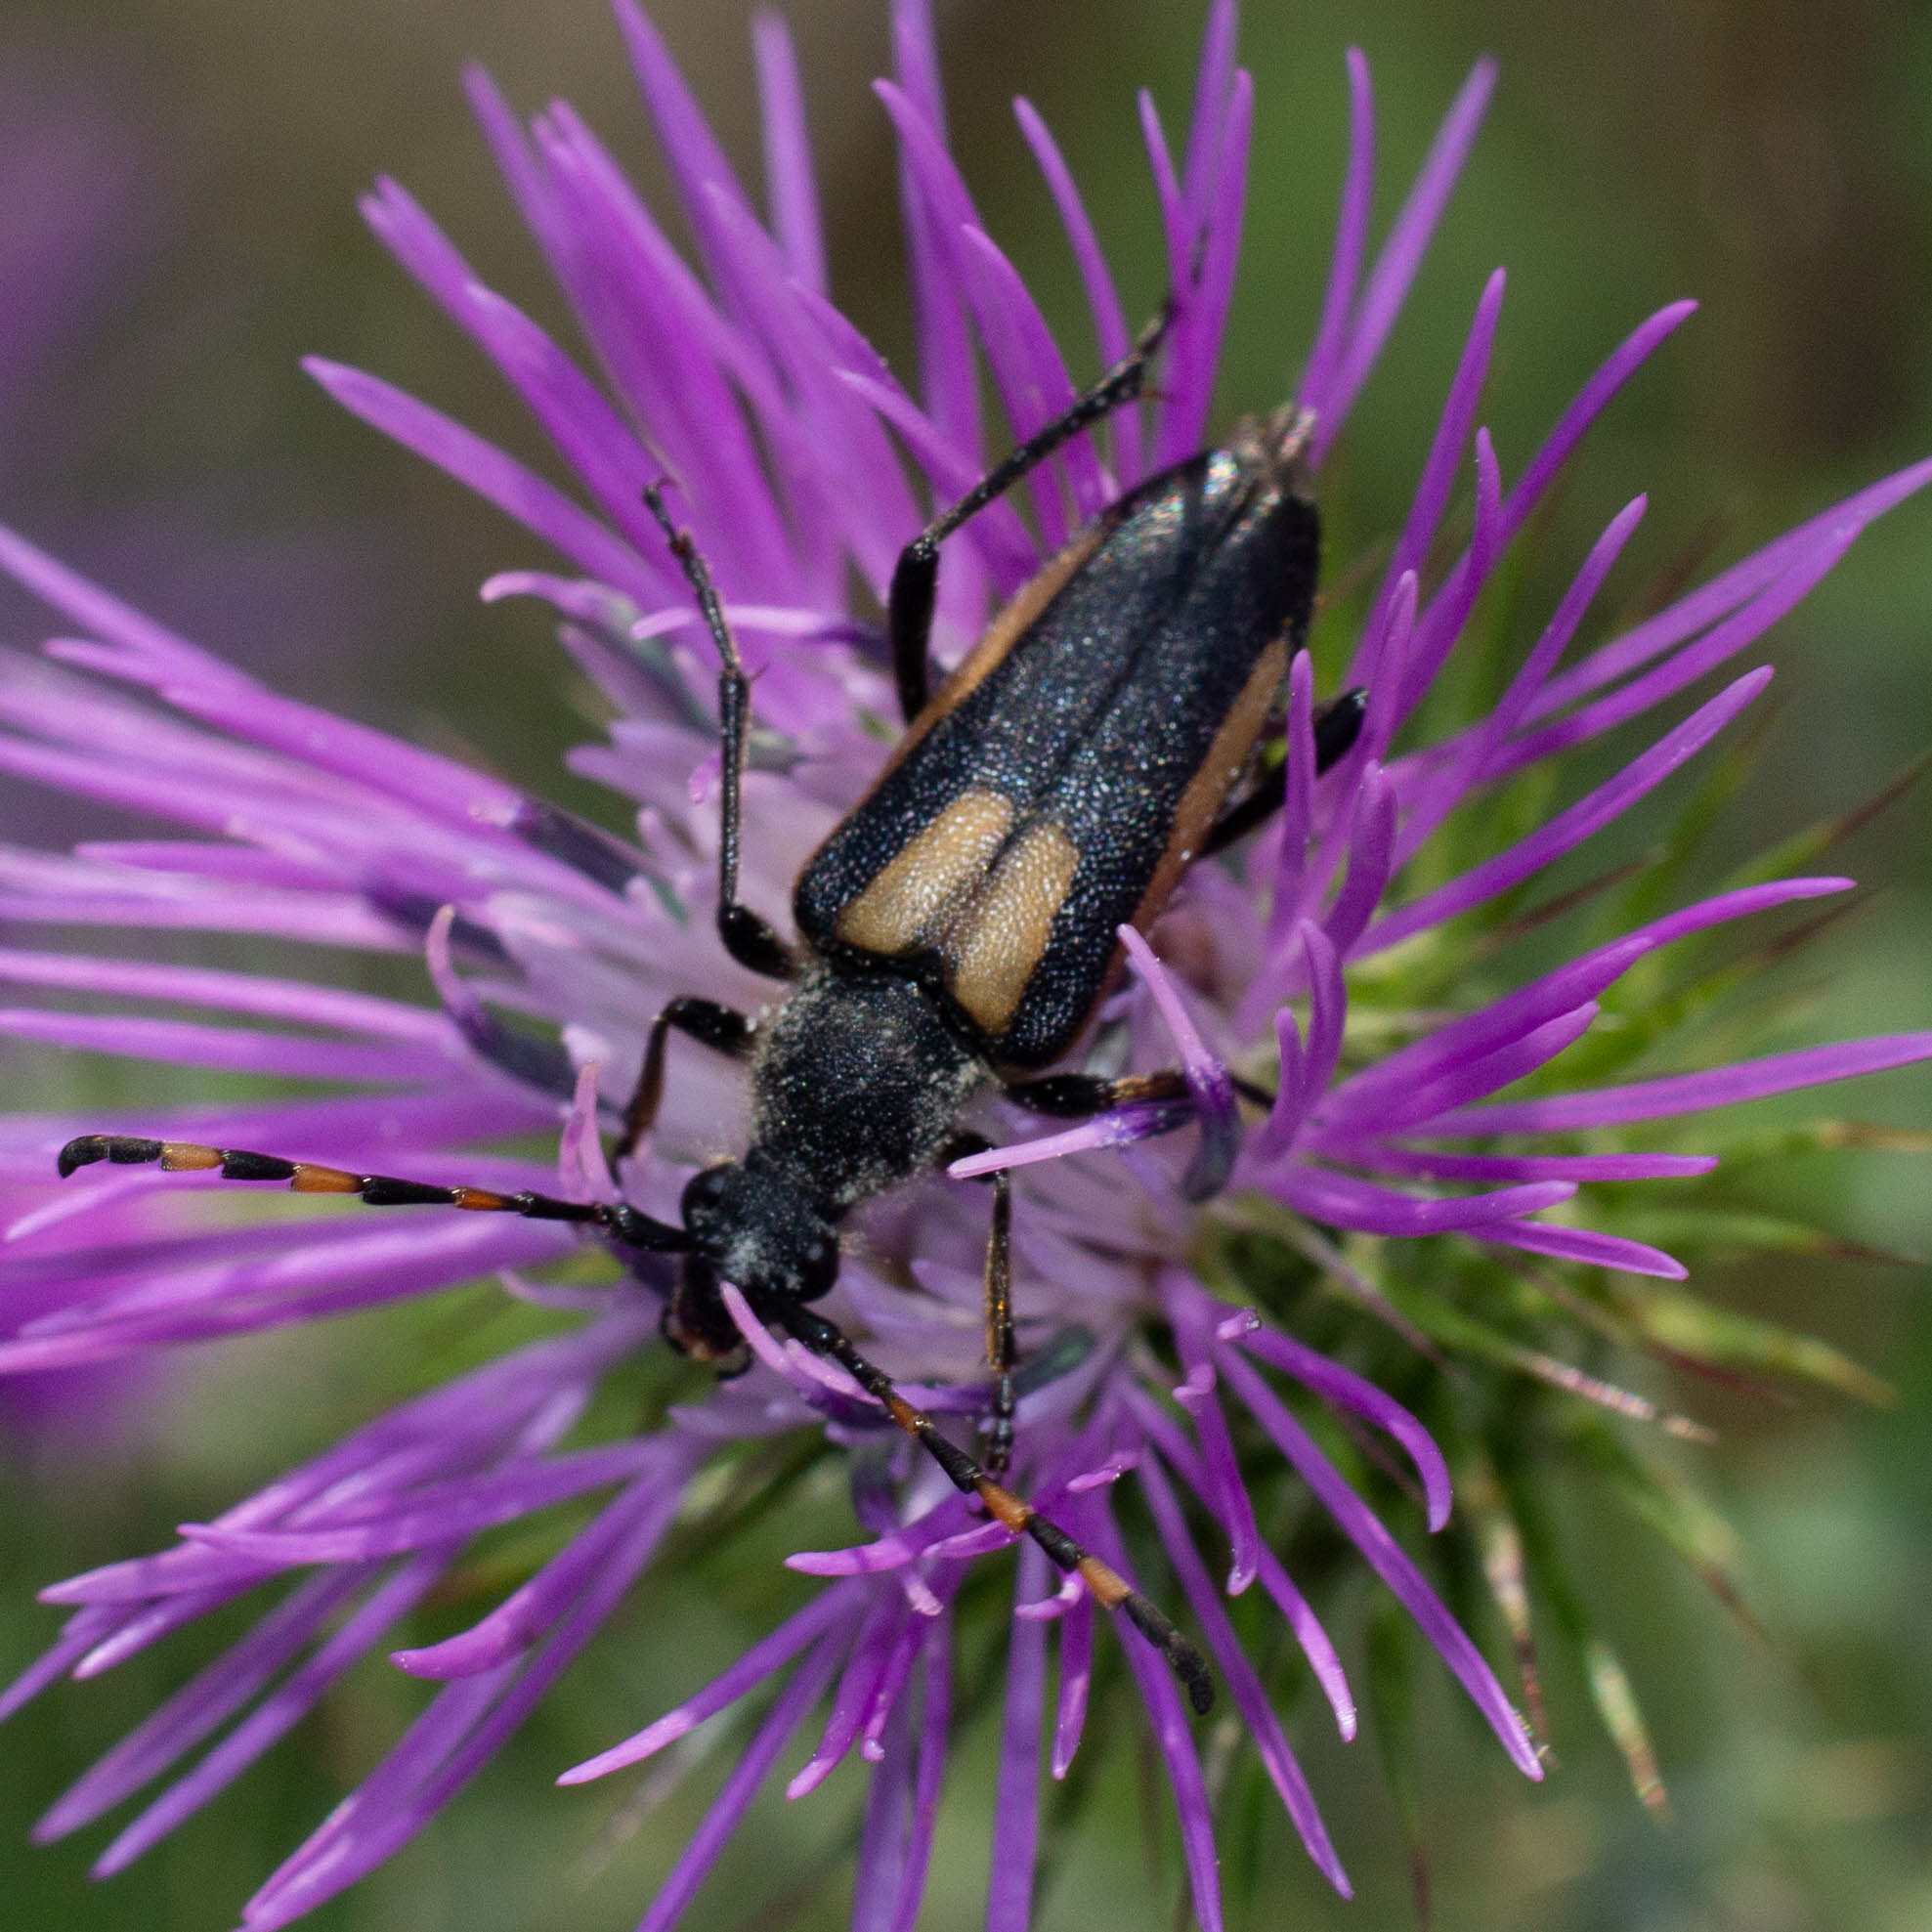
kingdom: Animalia
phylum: Arthropoda
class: Insecta
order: Coleoptera
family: Cerambycidae
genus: Stictoleptura
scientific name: Stictoleptura stragulata
